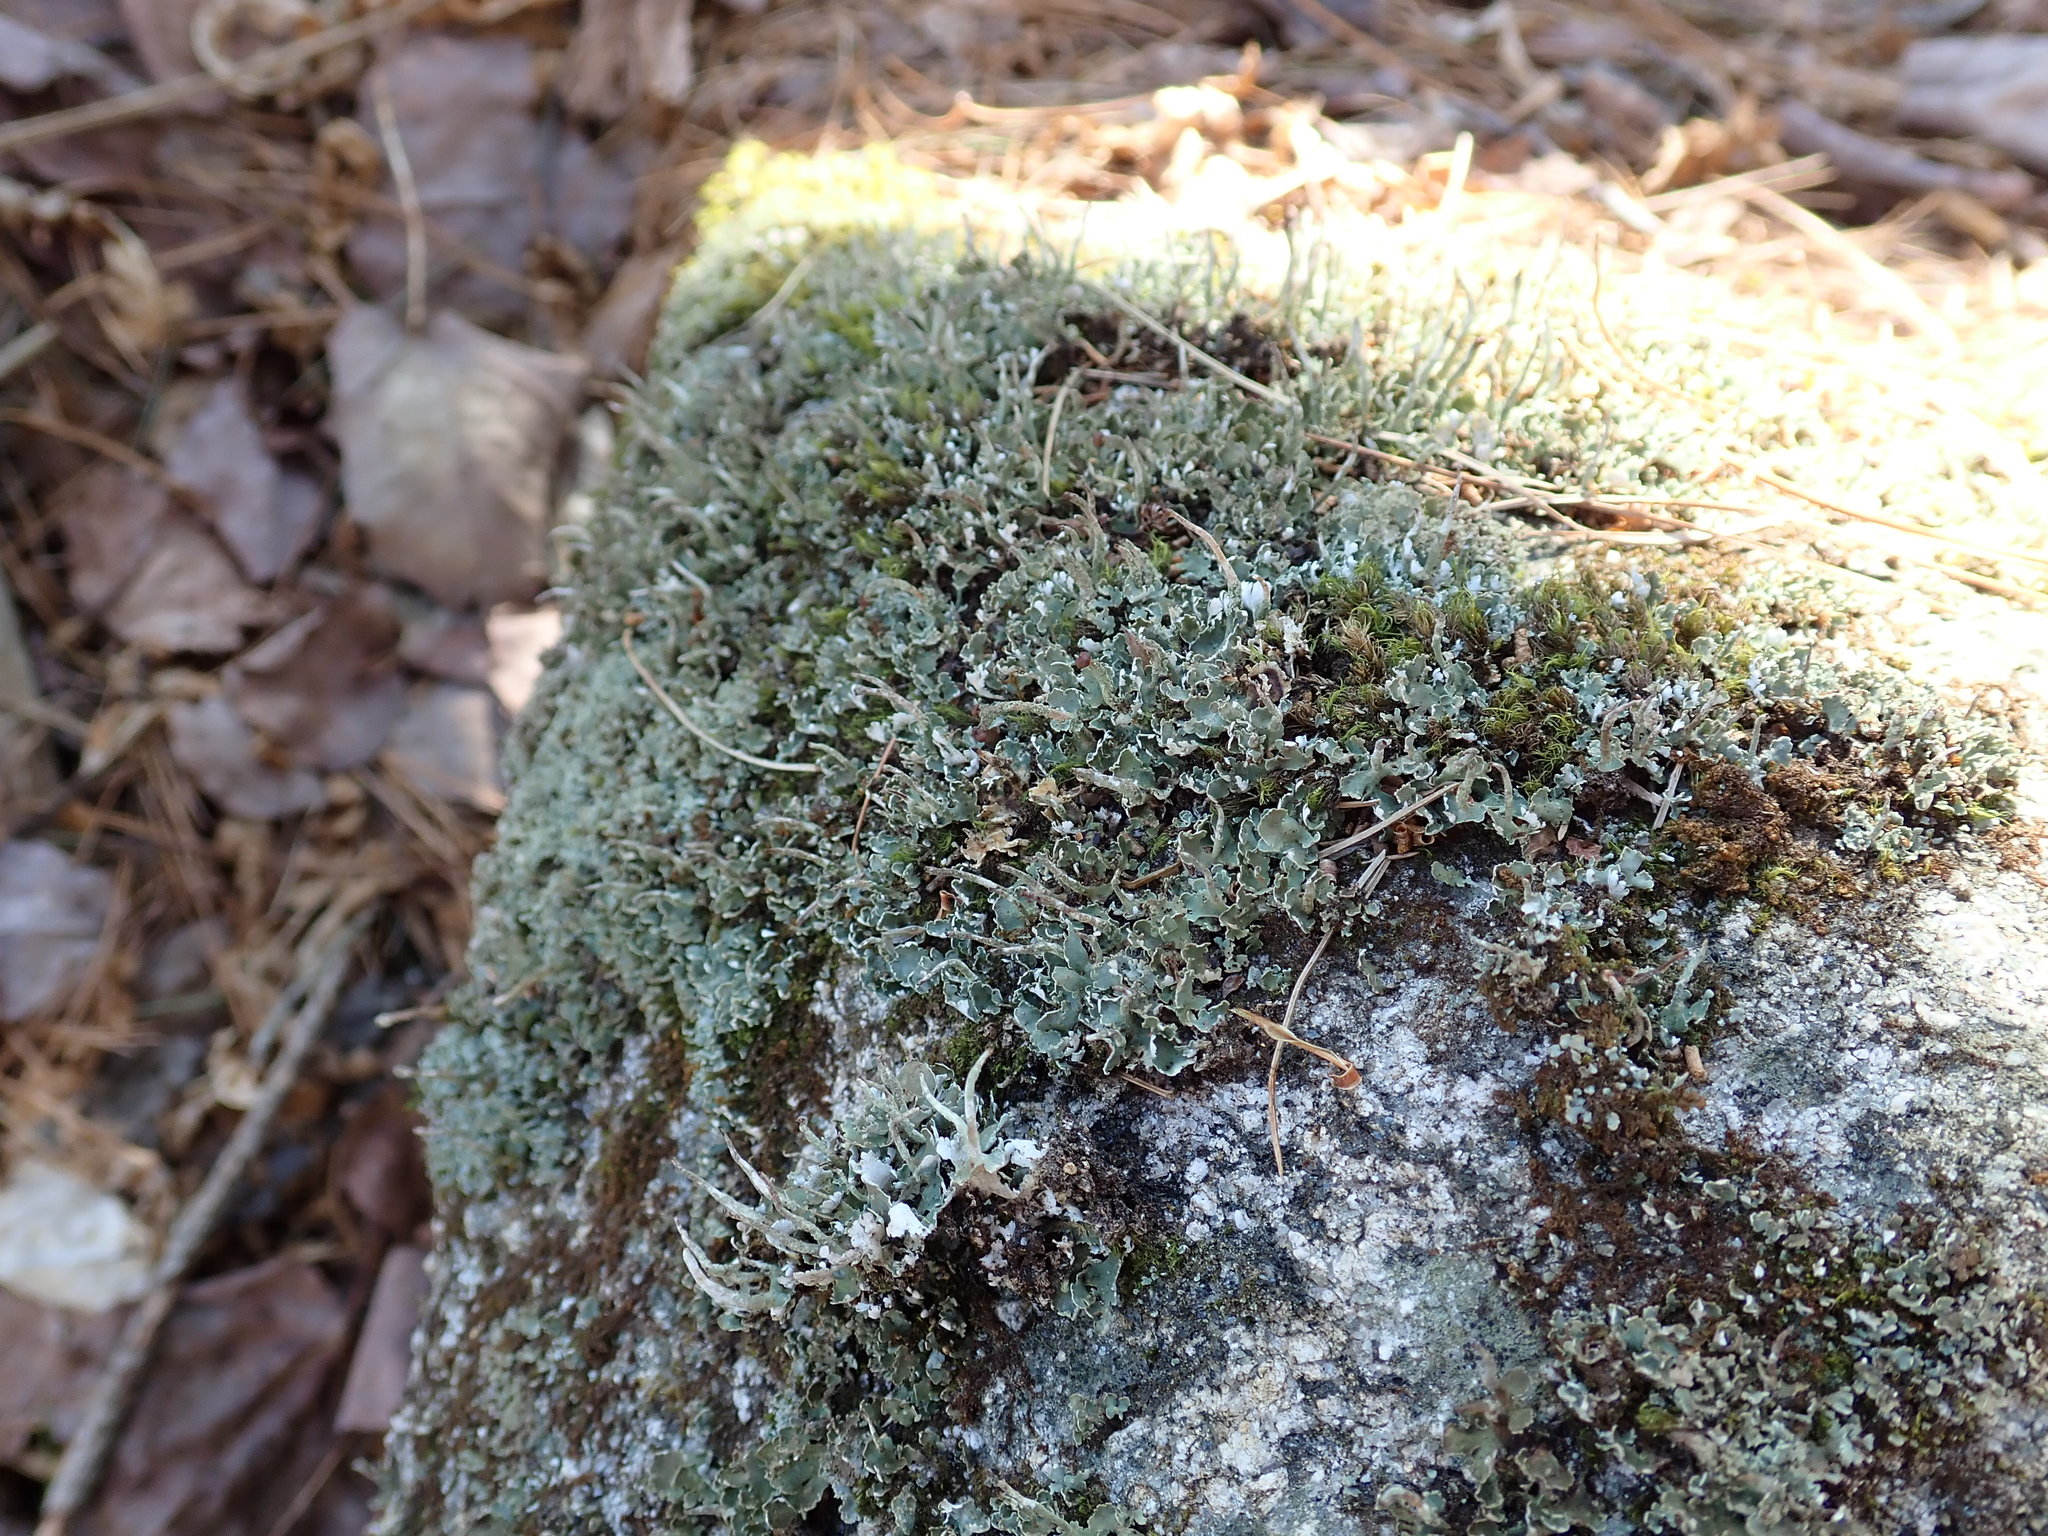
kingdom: Fungi
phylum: Ascomycota
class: Lecanoromycetes
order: Lecanorales
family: Cladoniaceae
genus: Cladonia
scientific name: Cladonia
